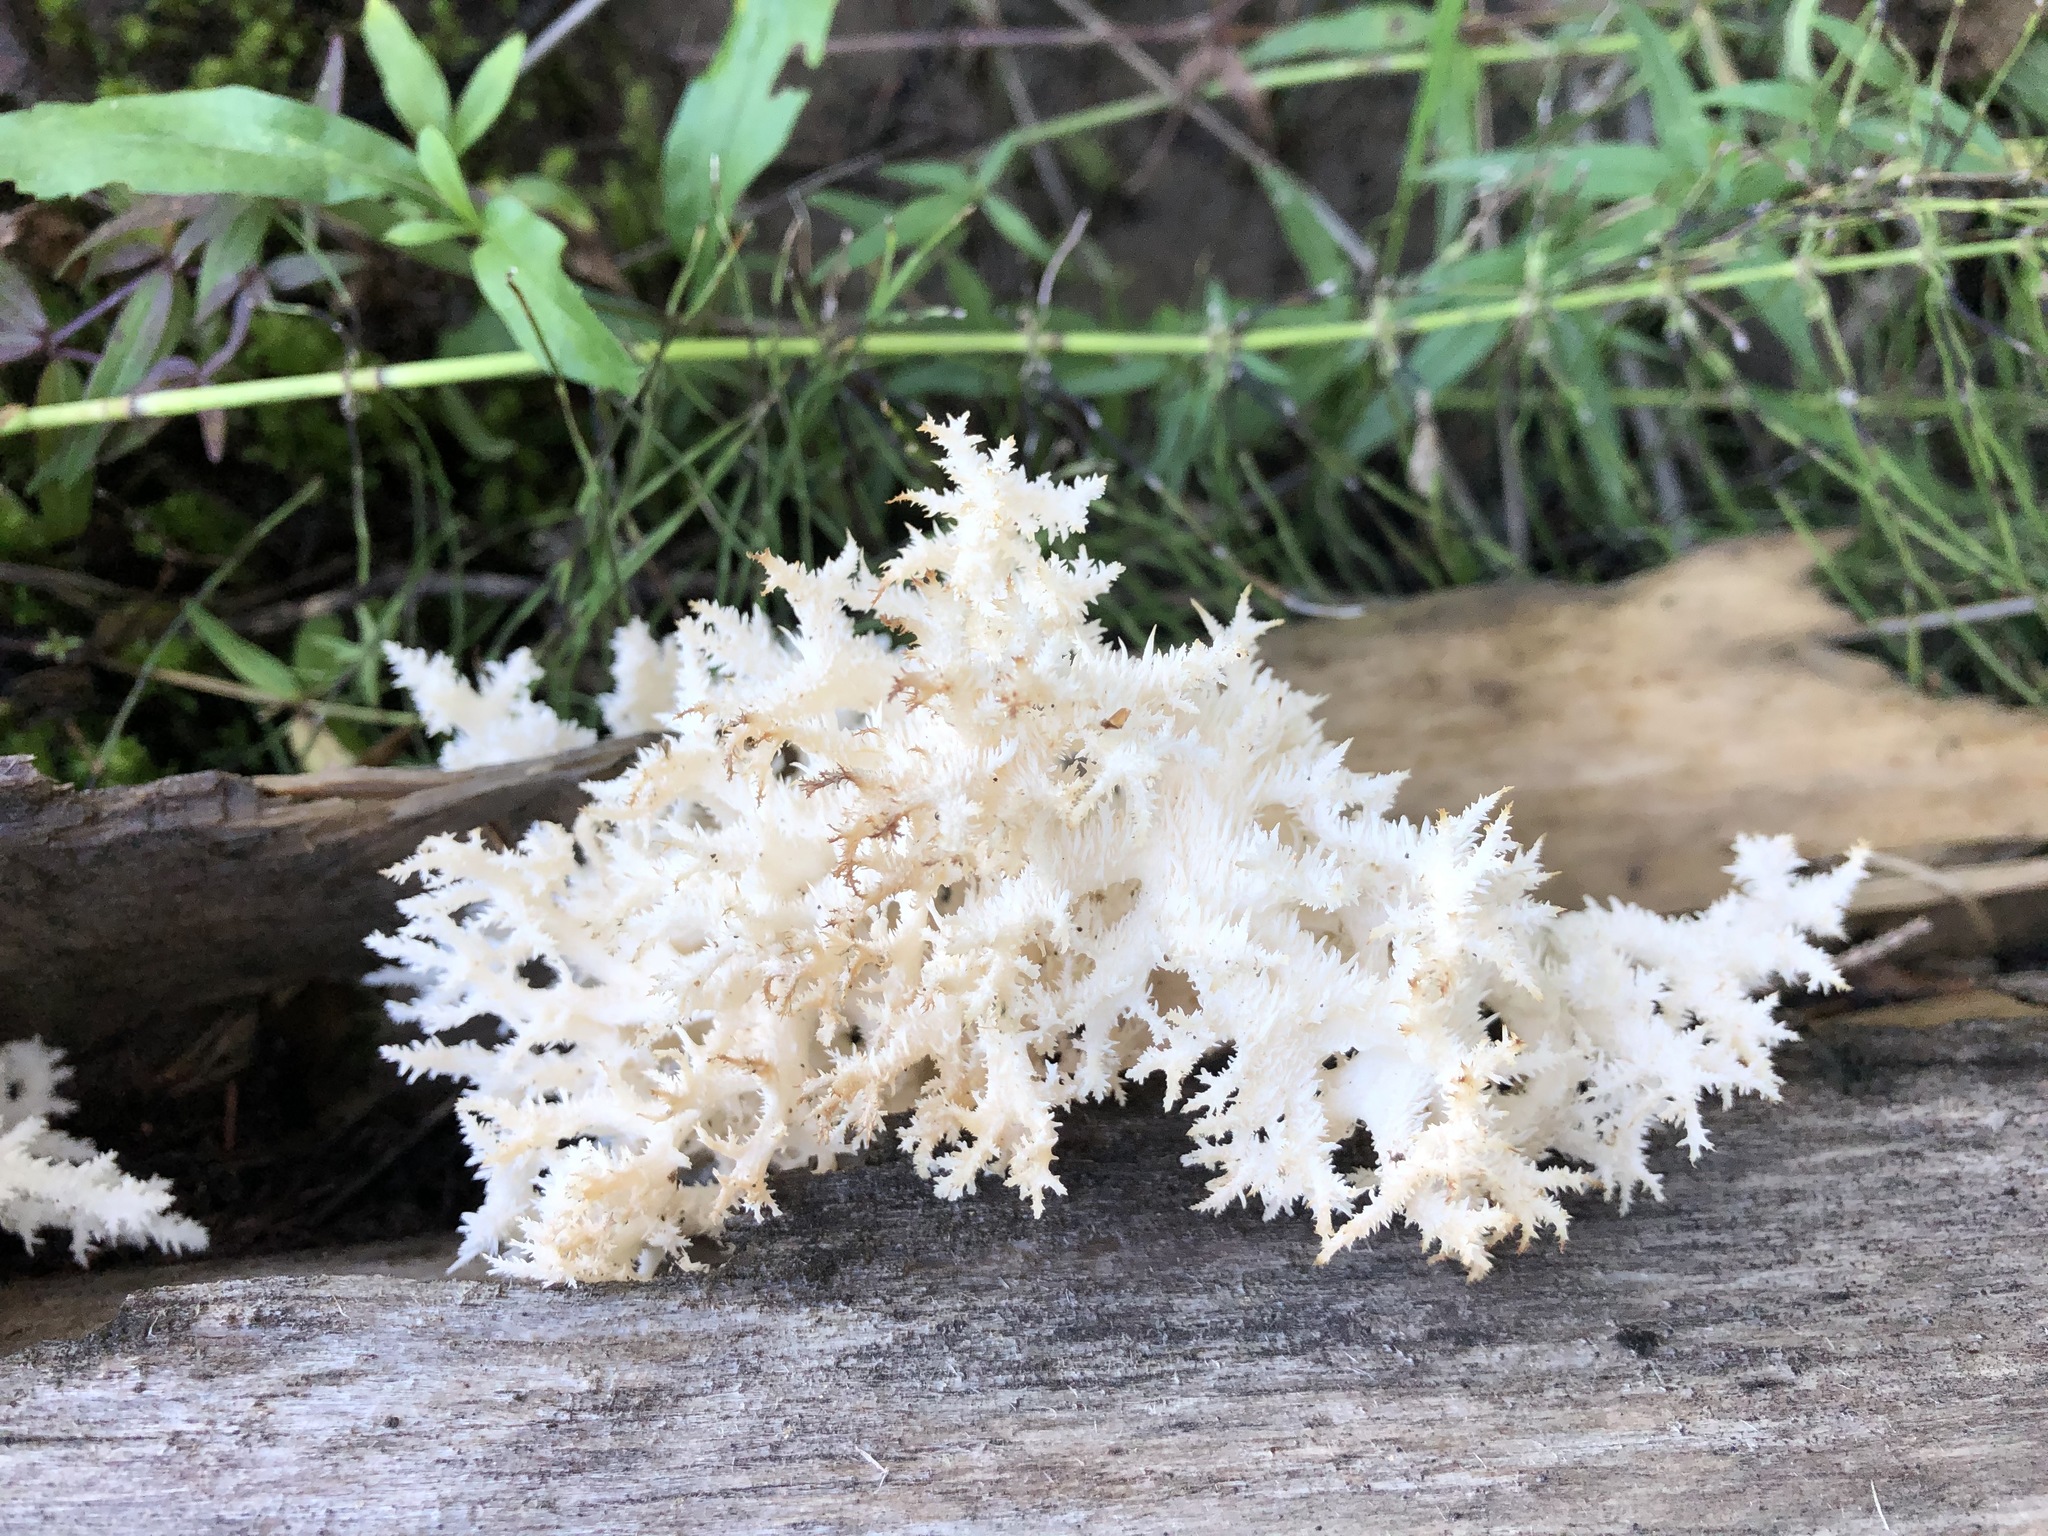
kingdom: Fungi
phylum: Basidiomycota
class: Agaricomycetes
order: Russulales
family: Hericiaceae
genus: Hericium
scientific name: Hericium coralloides
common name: Coral tooth
